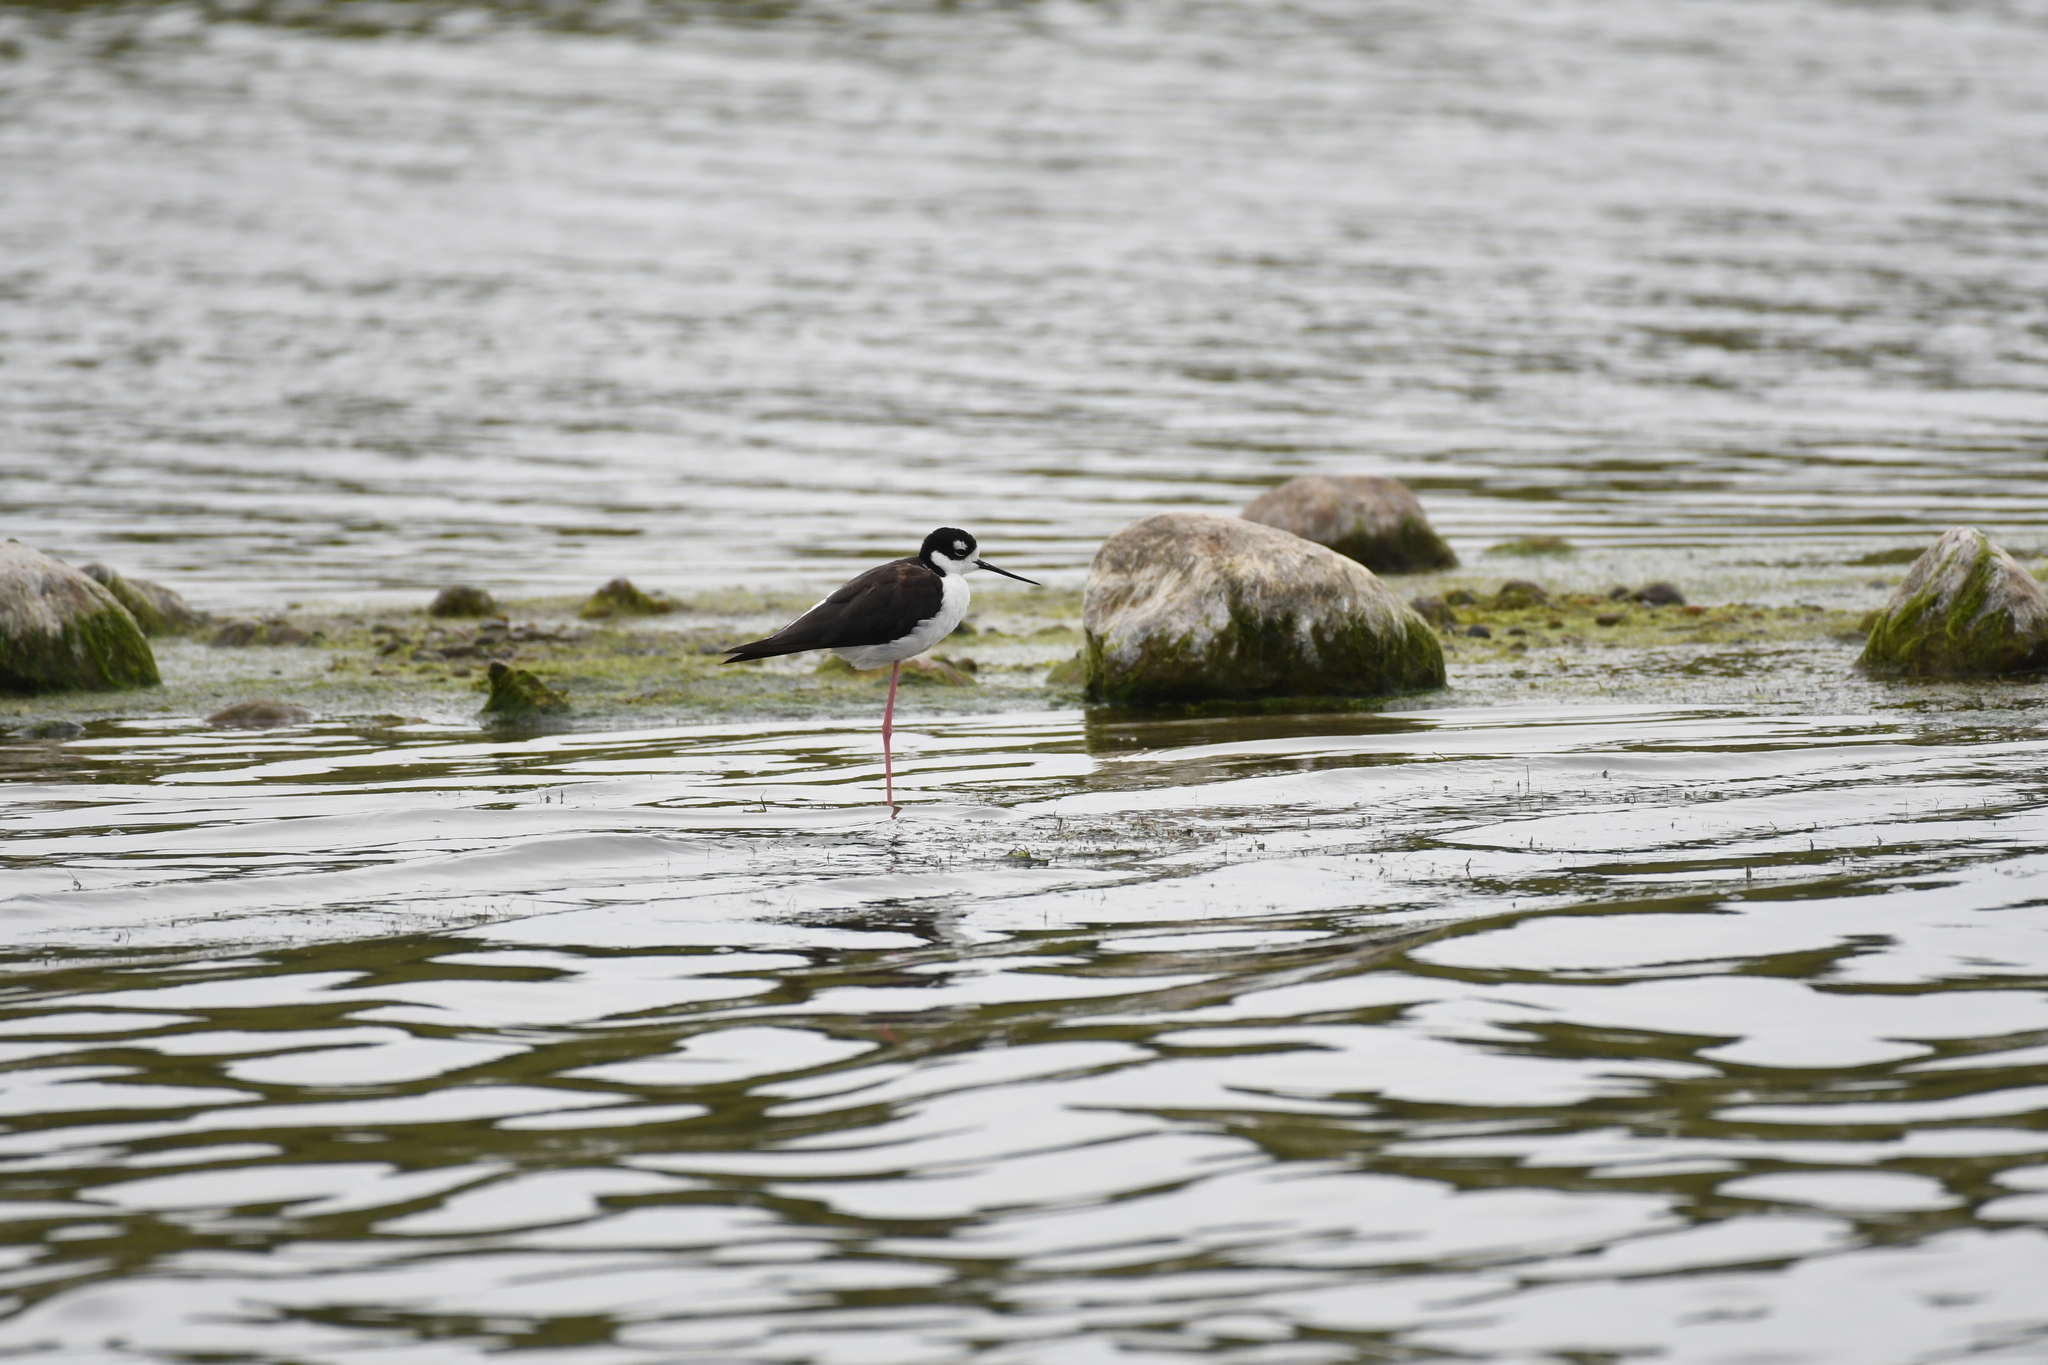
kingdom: Animalia
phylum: Chordata
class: Aves
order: Charadriiformes
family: Recurvirostridae
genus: Himantopus
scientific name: Himantopus mexicanus
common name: Black-necked stilt
